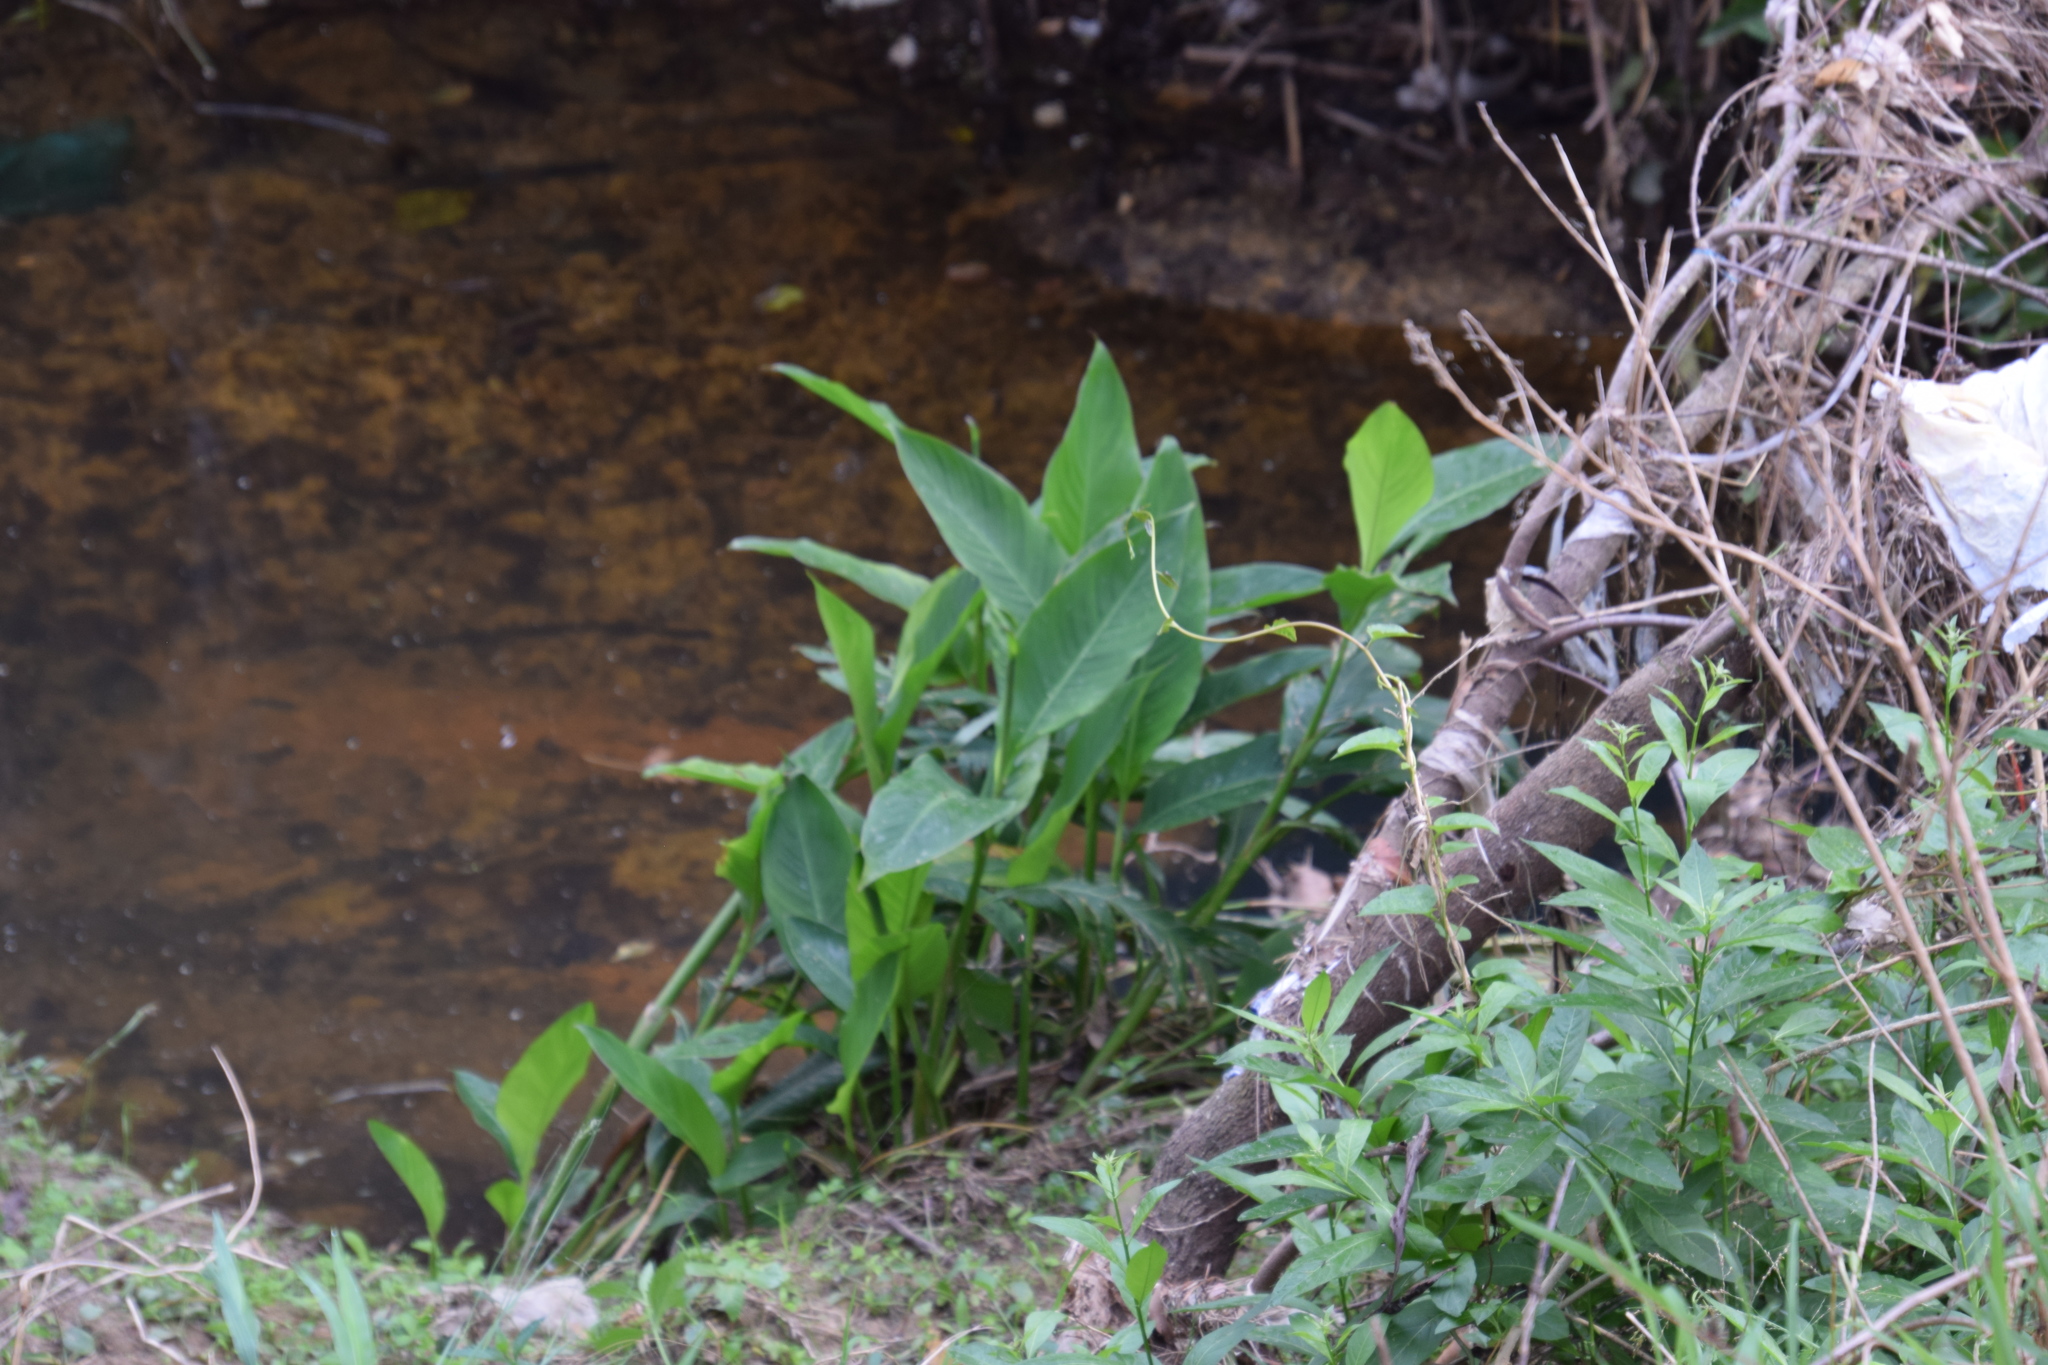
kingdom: Plantae
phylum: Tracheophyta
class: Liliopsida
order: Zingiberales
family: Cannaceae
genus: Canna
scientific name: Canna indica
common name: Indian shot
